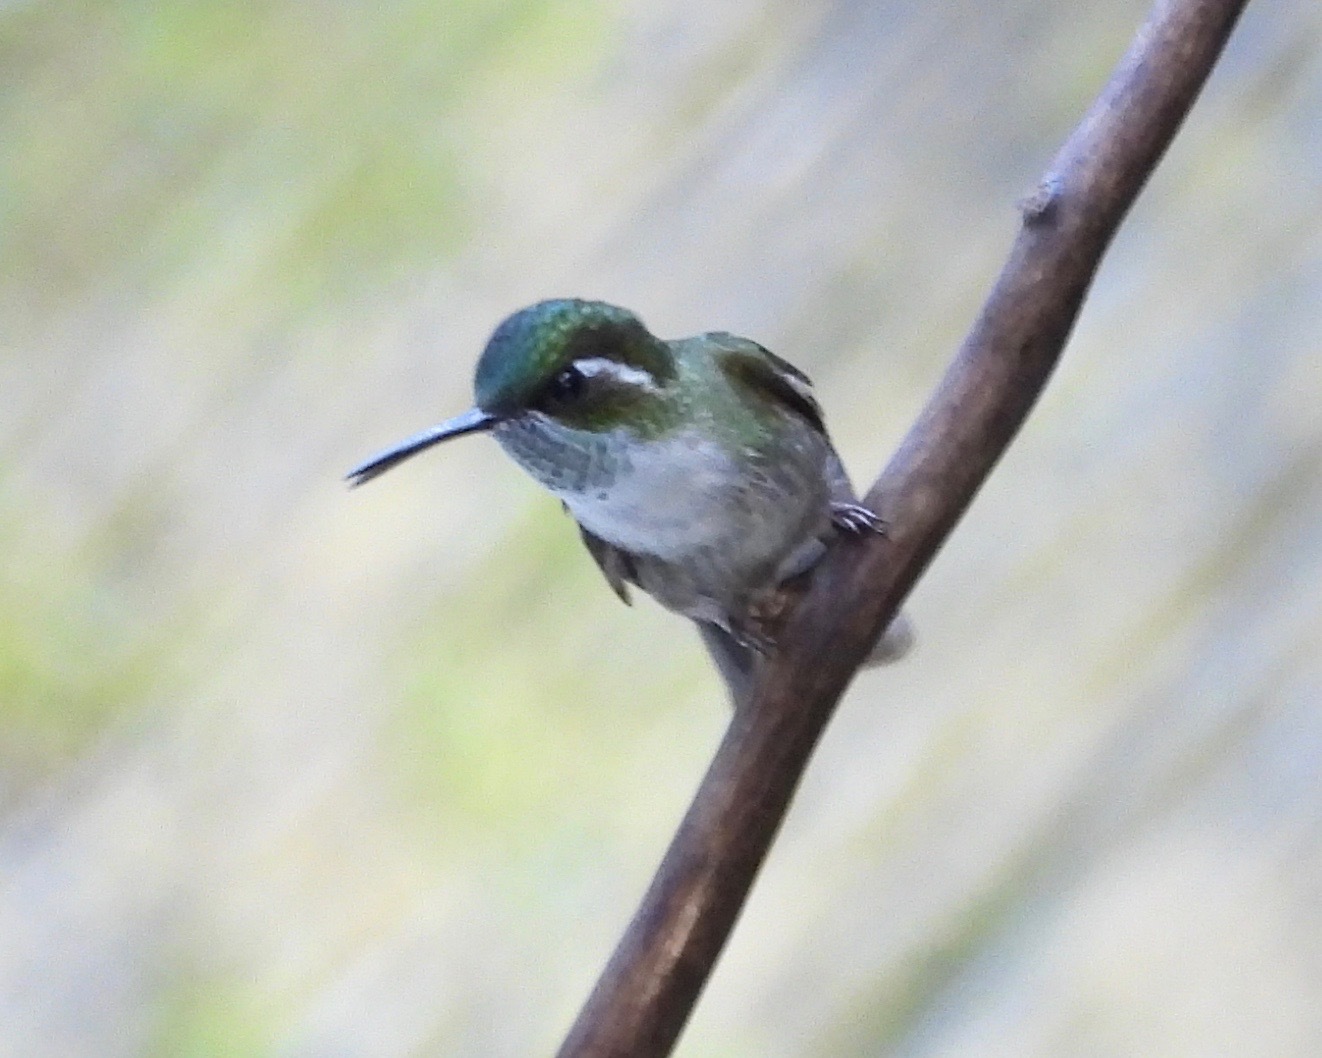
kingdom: Animalia
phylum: Chordata
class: Aves
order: Apodiformes
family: Trochilidae
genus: Lampornis
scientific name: Lampornis viridipallens
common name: Green-throated mountain-gem
